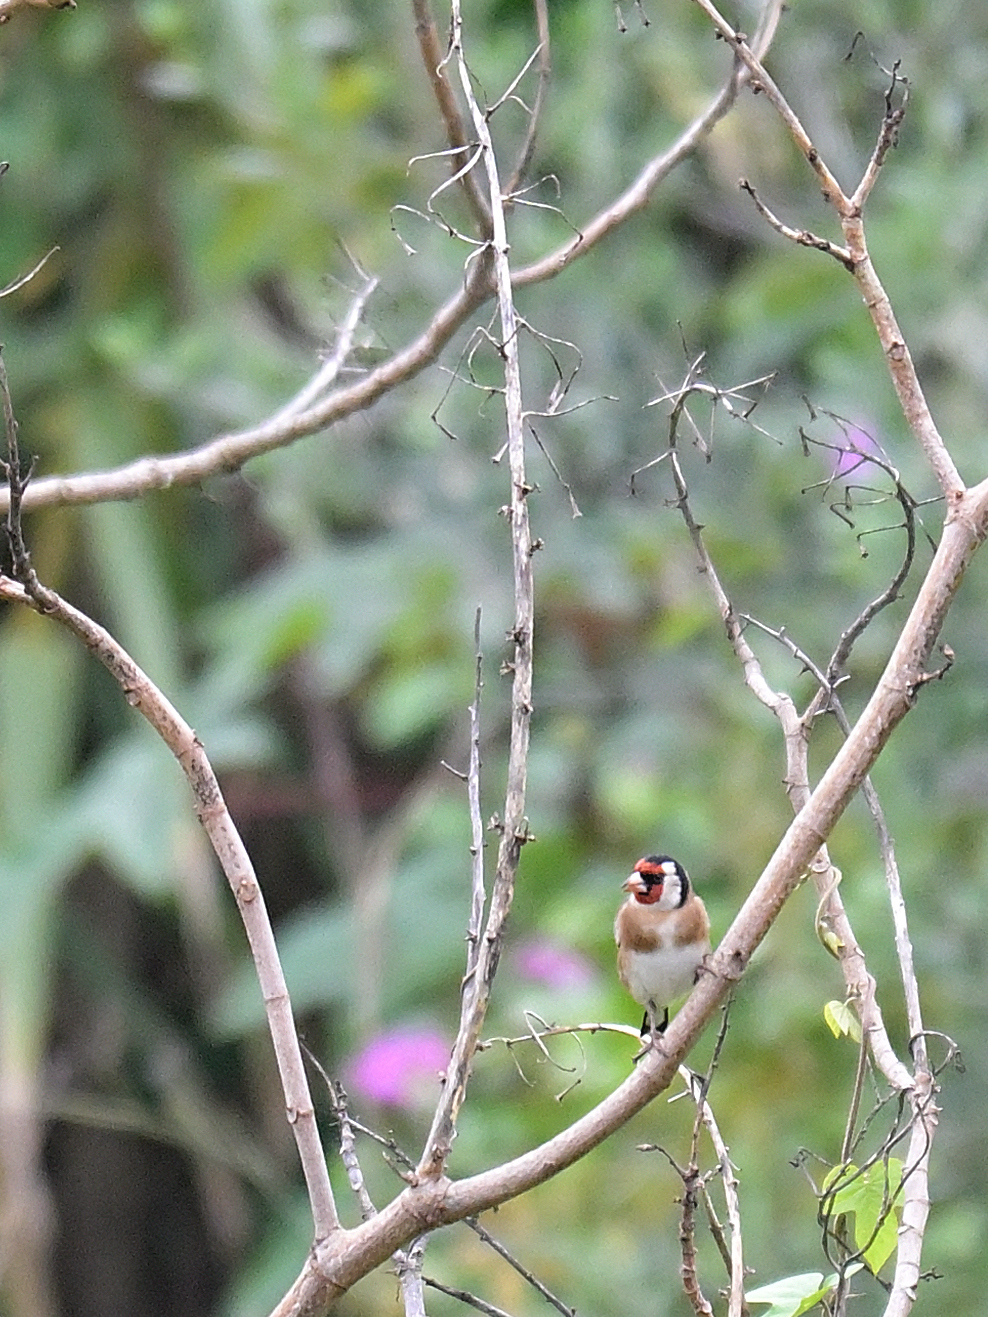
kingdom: Animalia
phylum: Chordata
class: Aves
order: Passeriformes
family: Fringillidae
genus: Carduelis
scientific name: Carduelis carduelis
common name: European goldfinch
